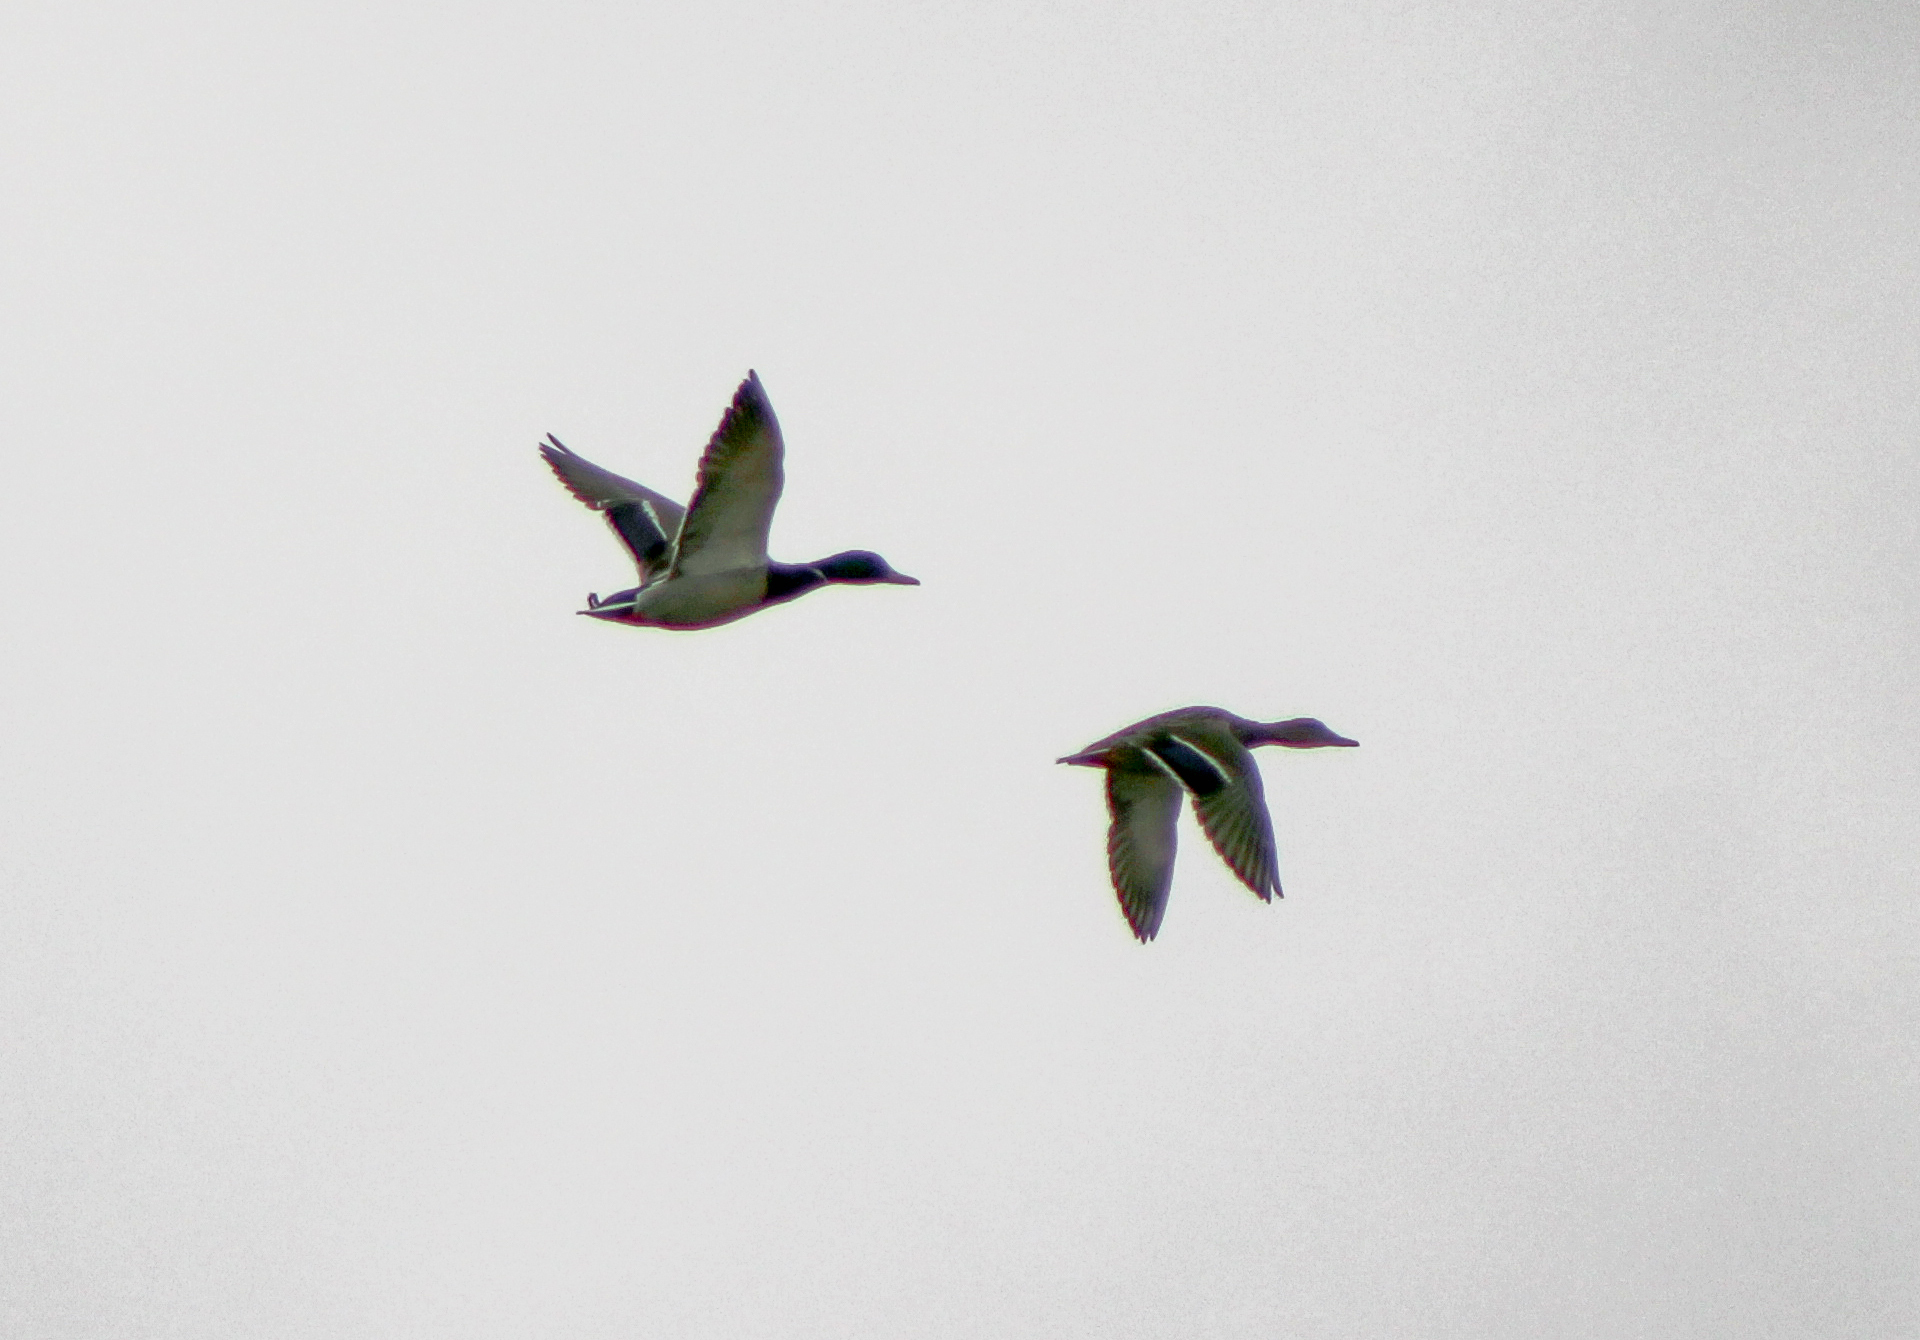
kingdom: Animalia
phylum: Chordata
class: Aves
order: Anseriformes
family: Anatidae
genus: Anas
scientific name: Anas platyrhynchos
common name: Mallard
